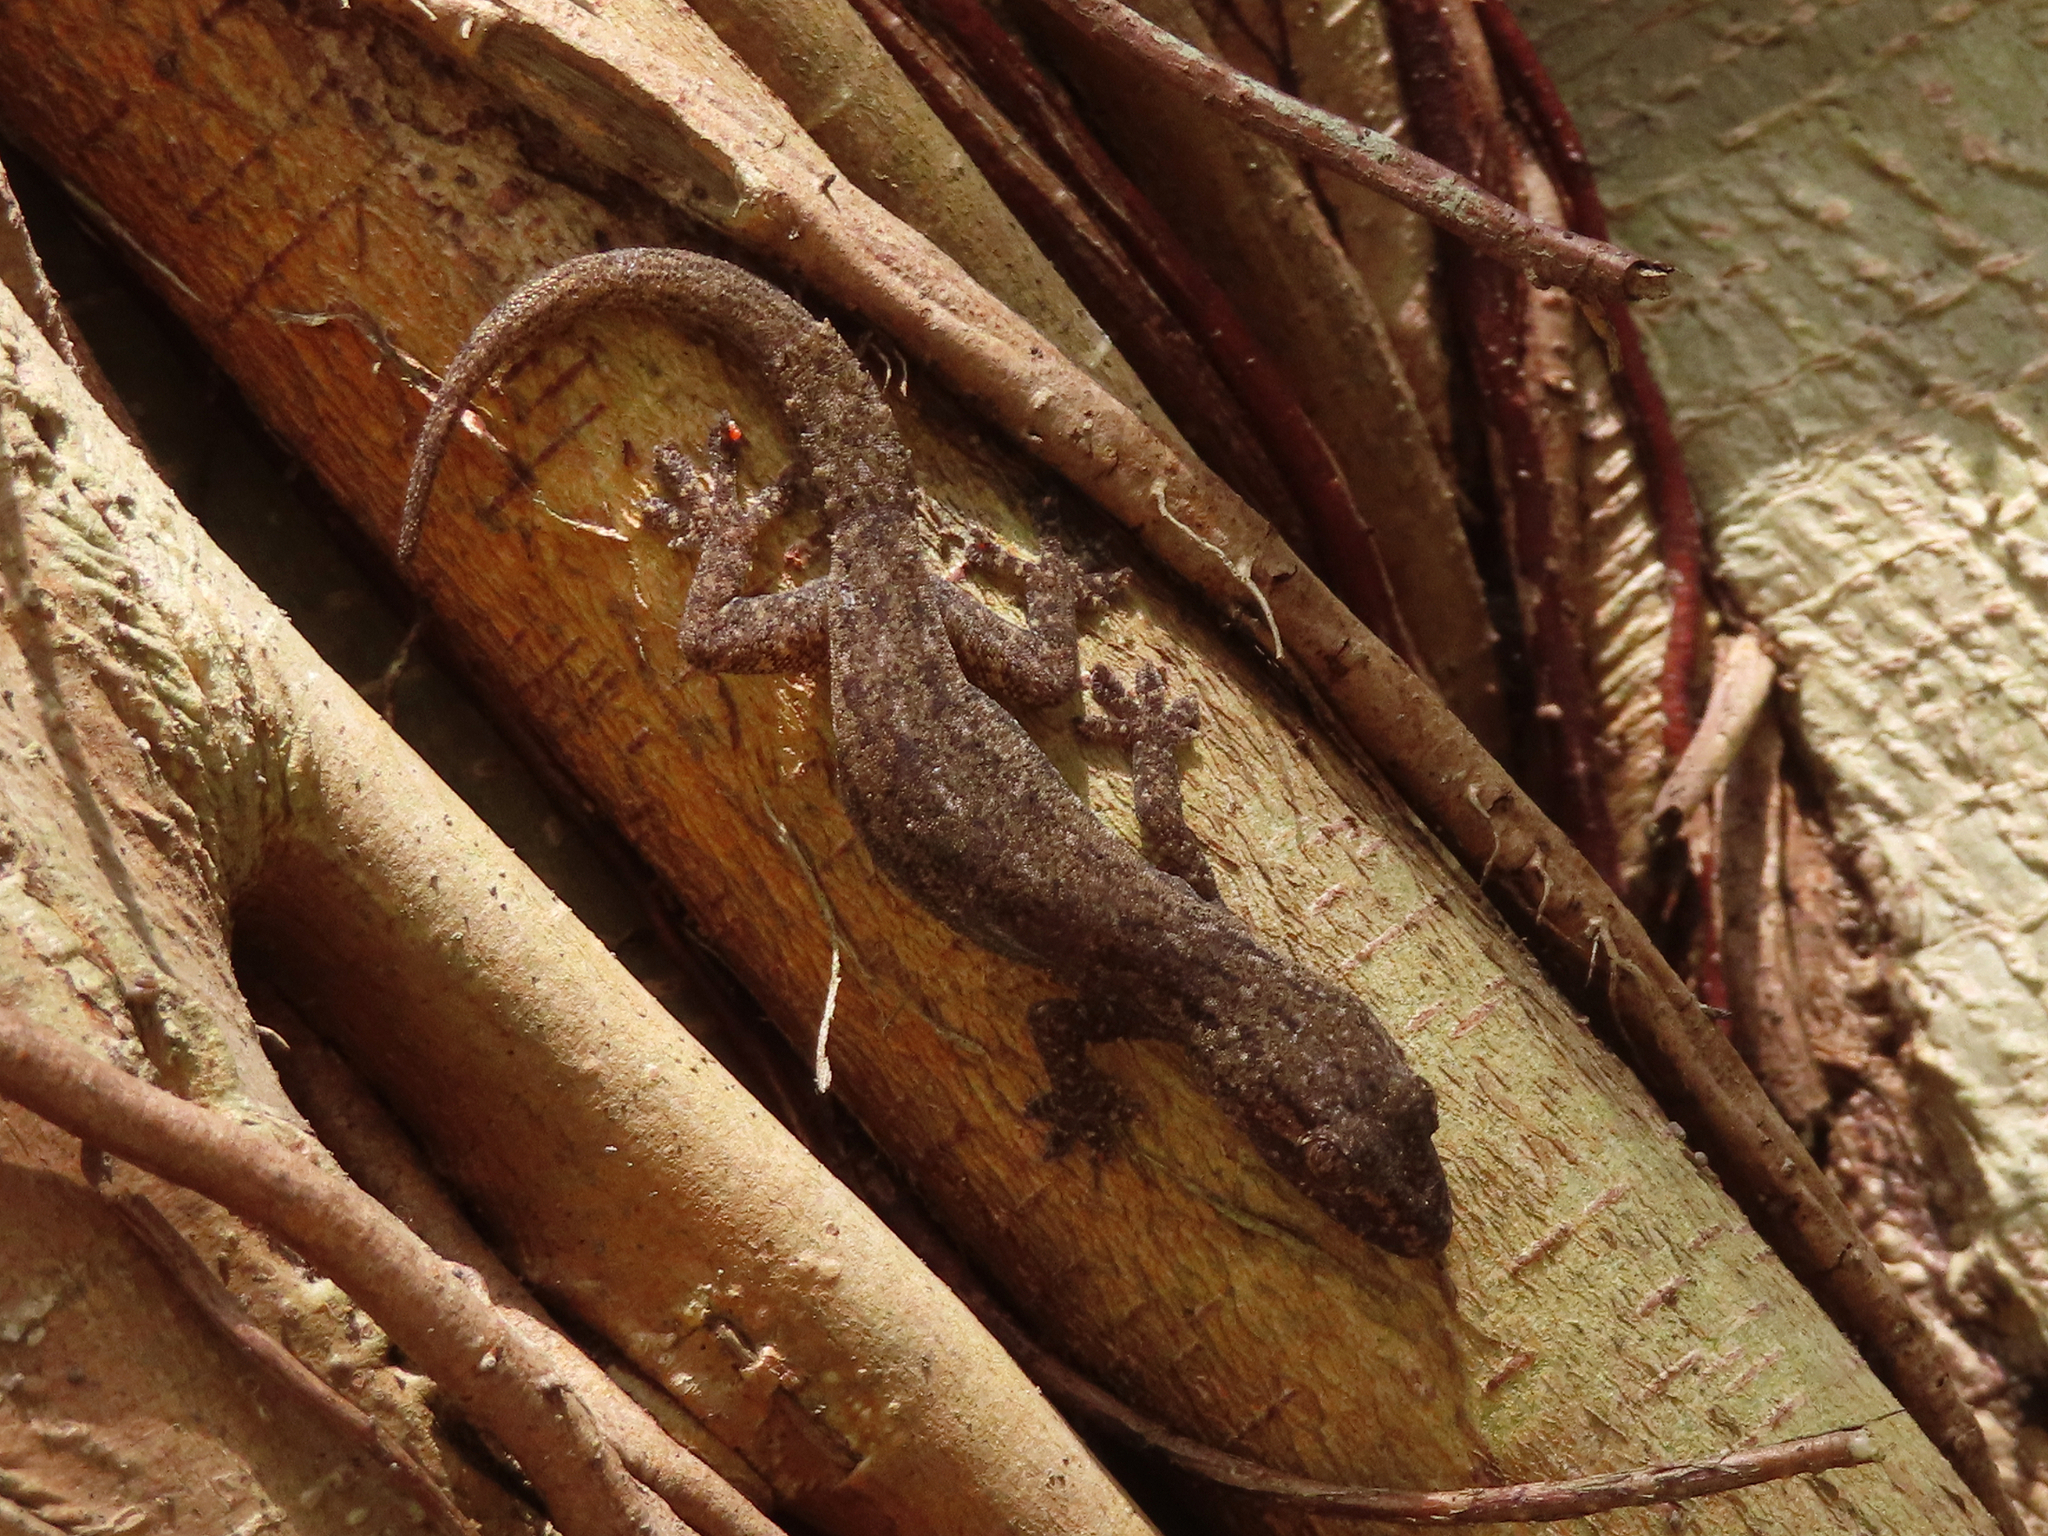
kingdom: Animalia
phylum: Chordata
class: Squamata
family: Gekkonidae
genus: Hemidactylus
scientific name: Hemidactylus frenatus
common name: Common house gecko
